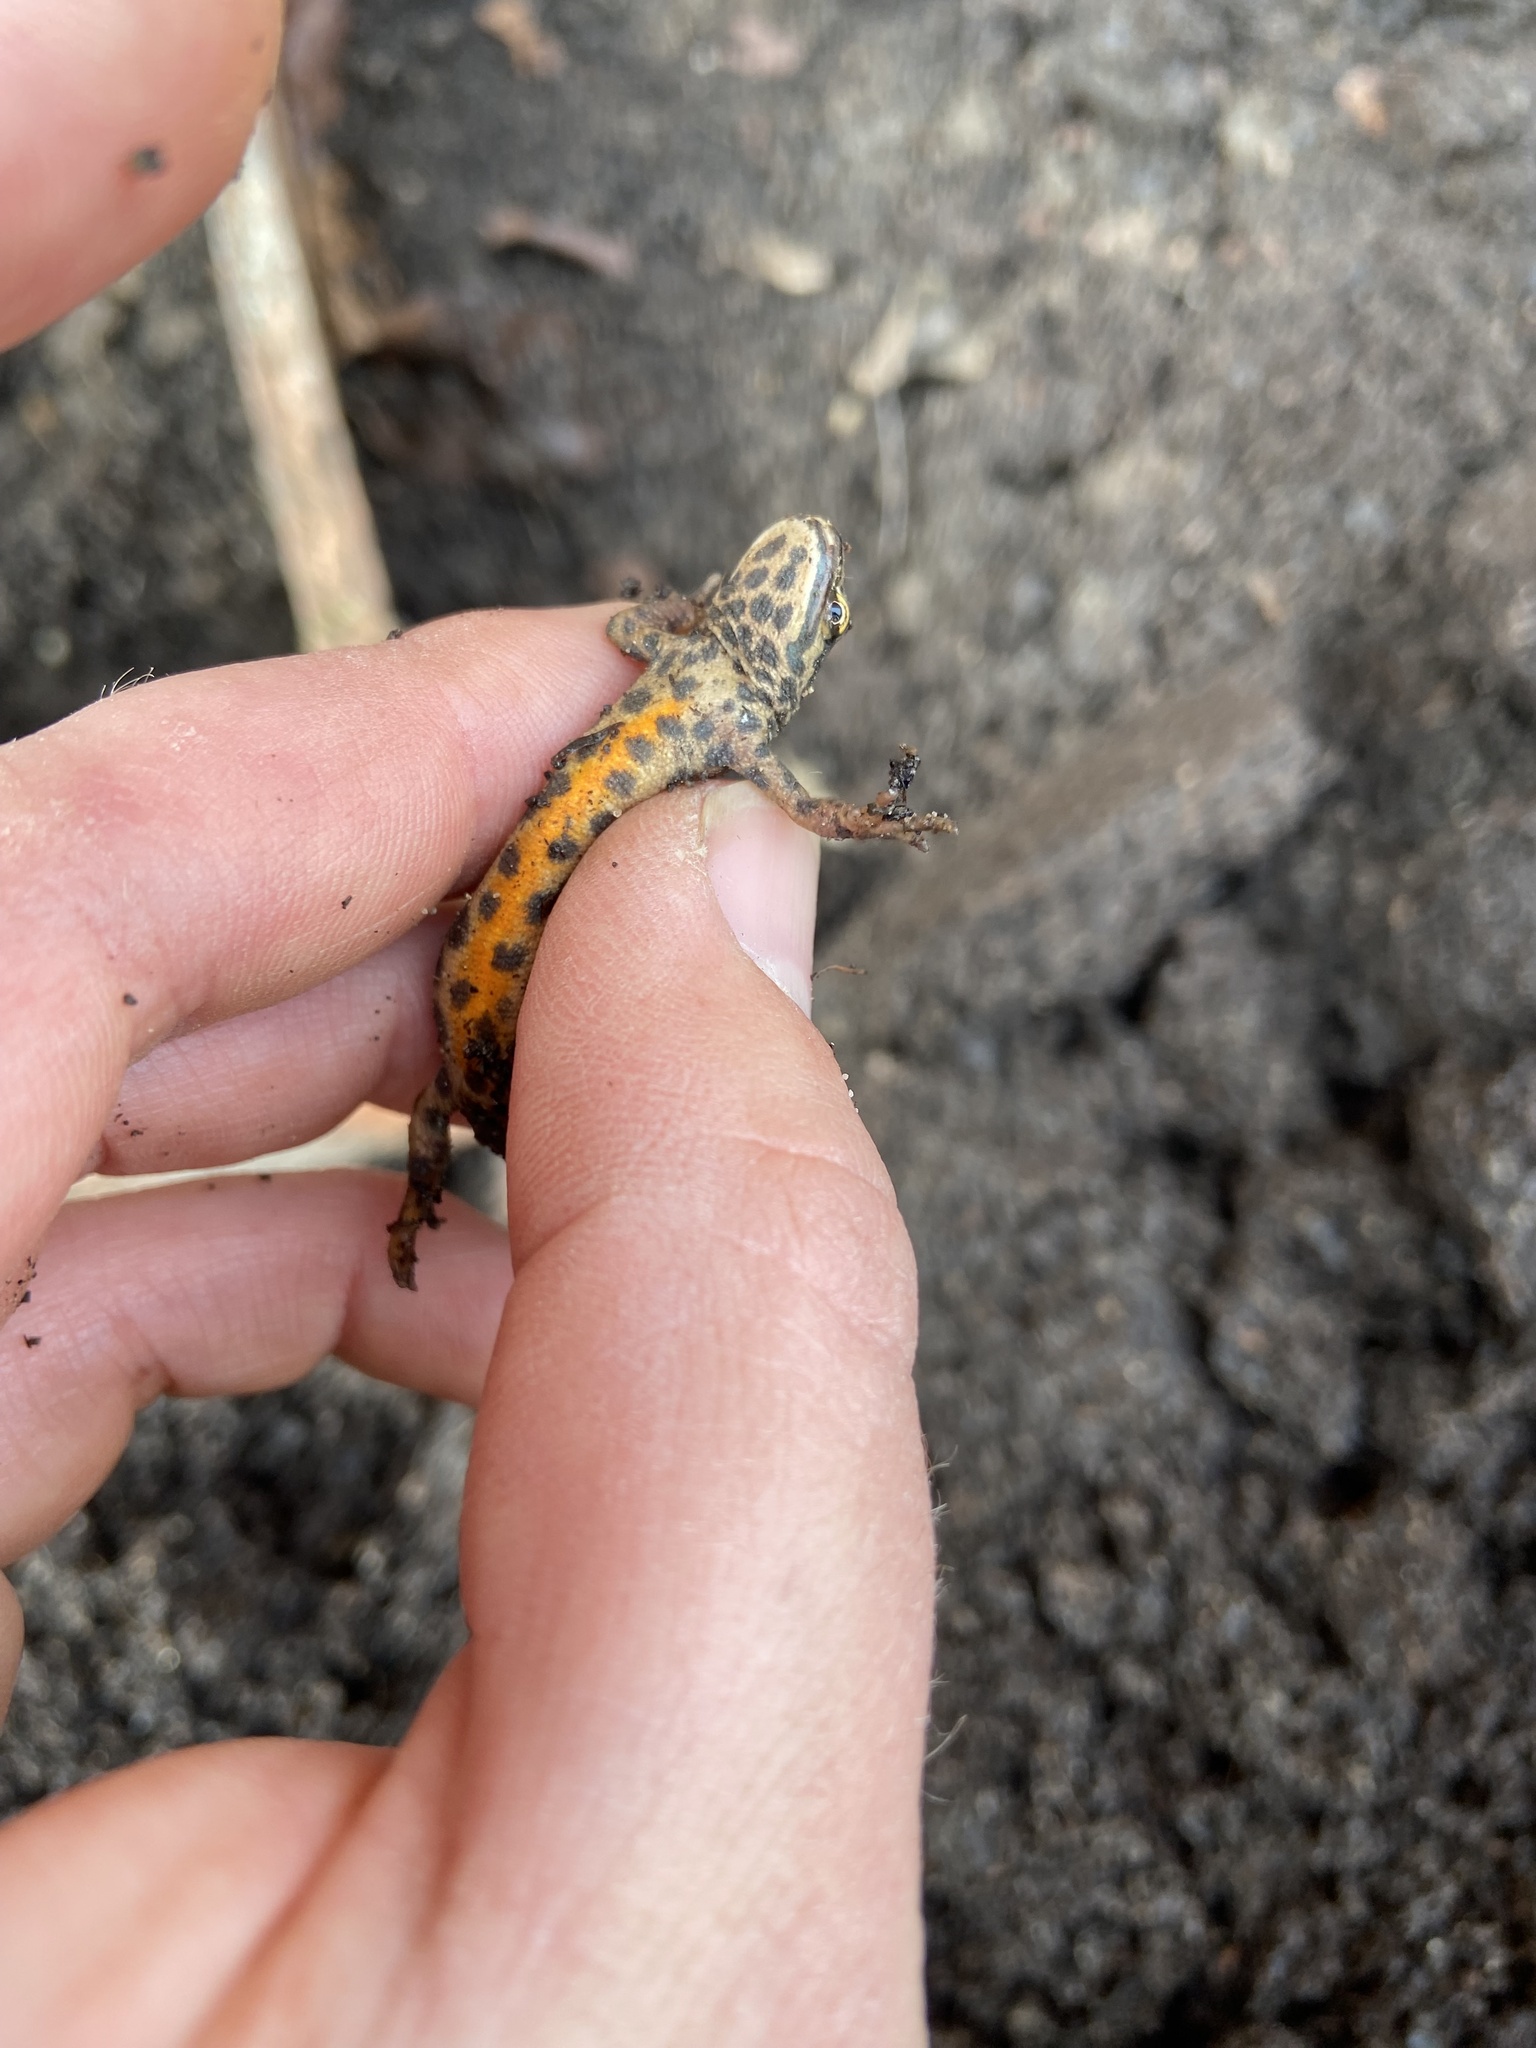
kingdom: Animalia
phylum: Chordata
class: Amphibia
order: Caudata
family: Salamandridae
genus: Lissotriton
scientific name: Lissotriton vulgaris
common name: Smooth newt
